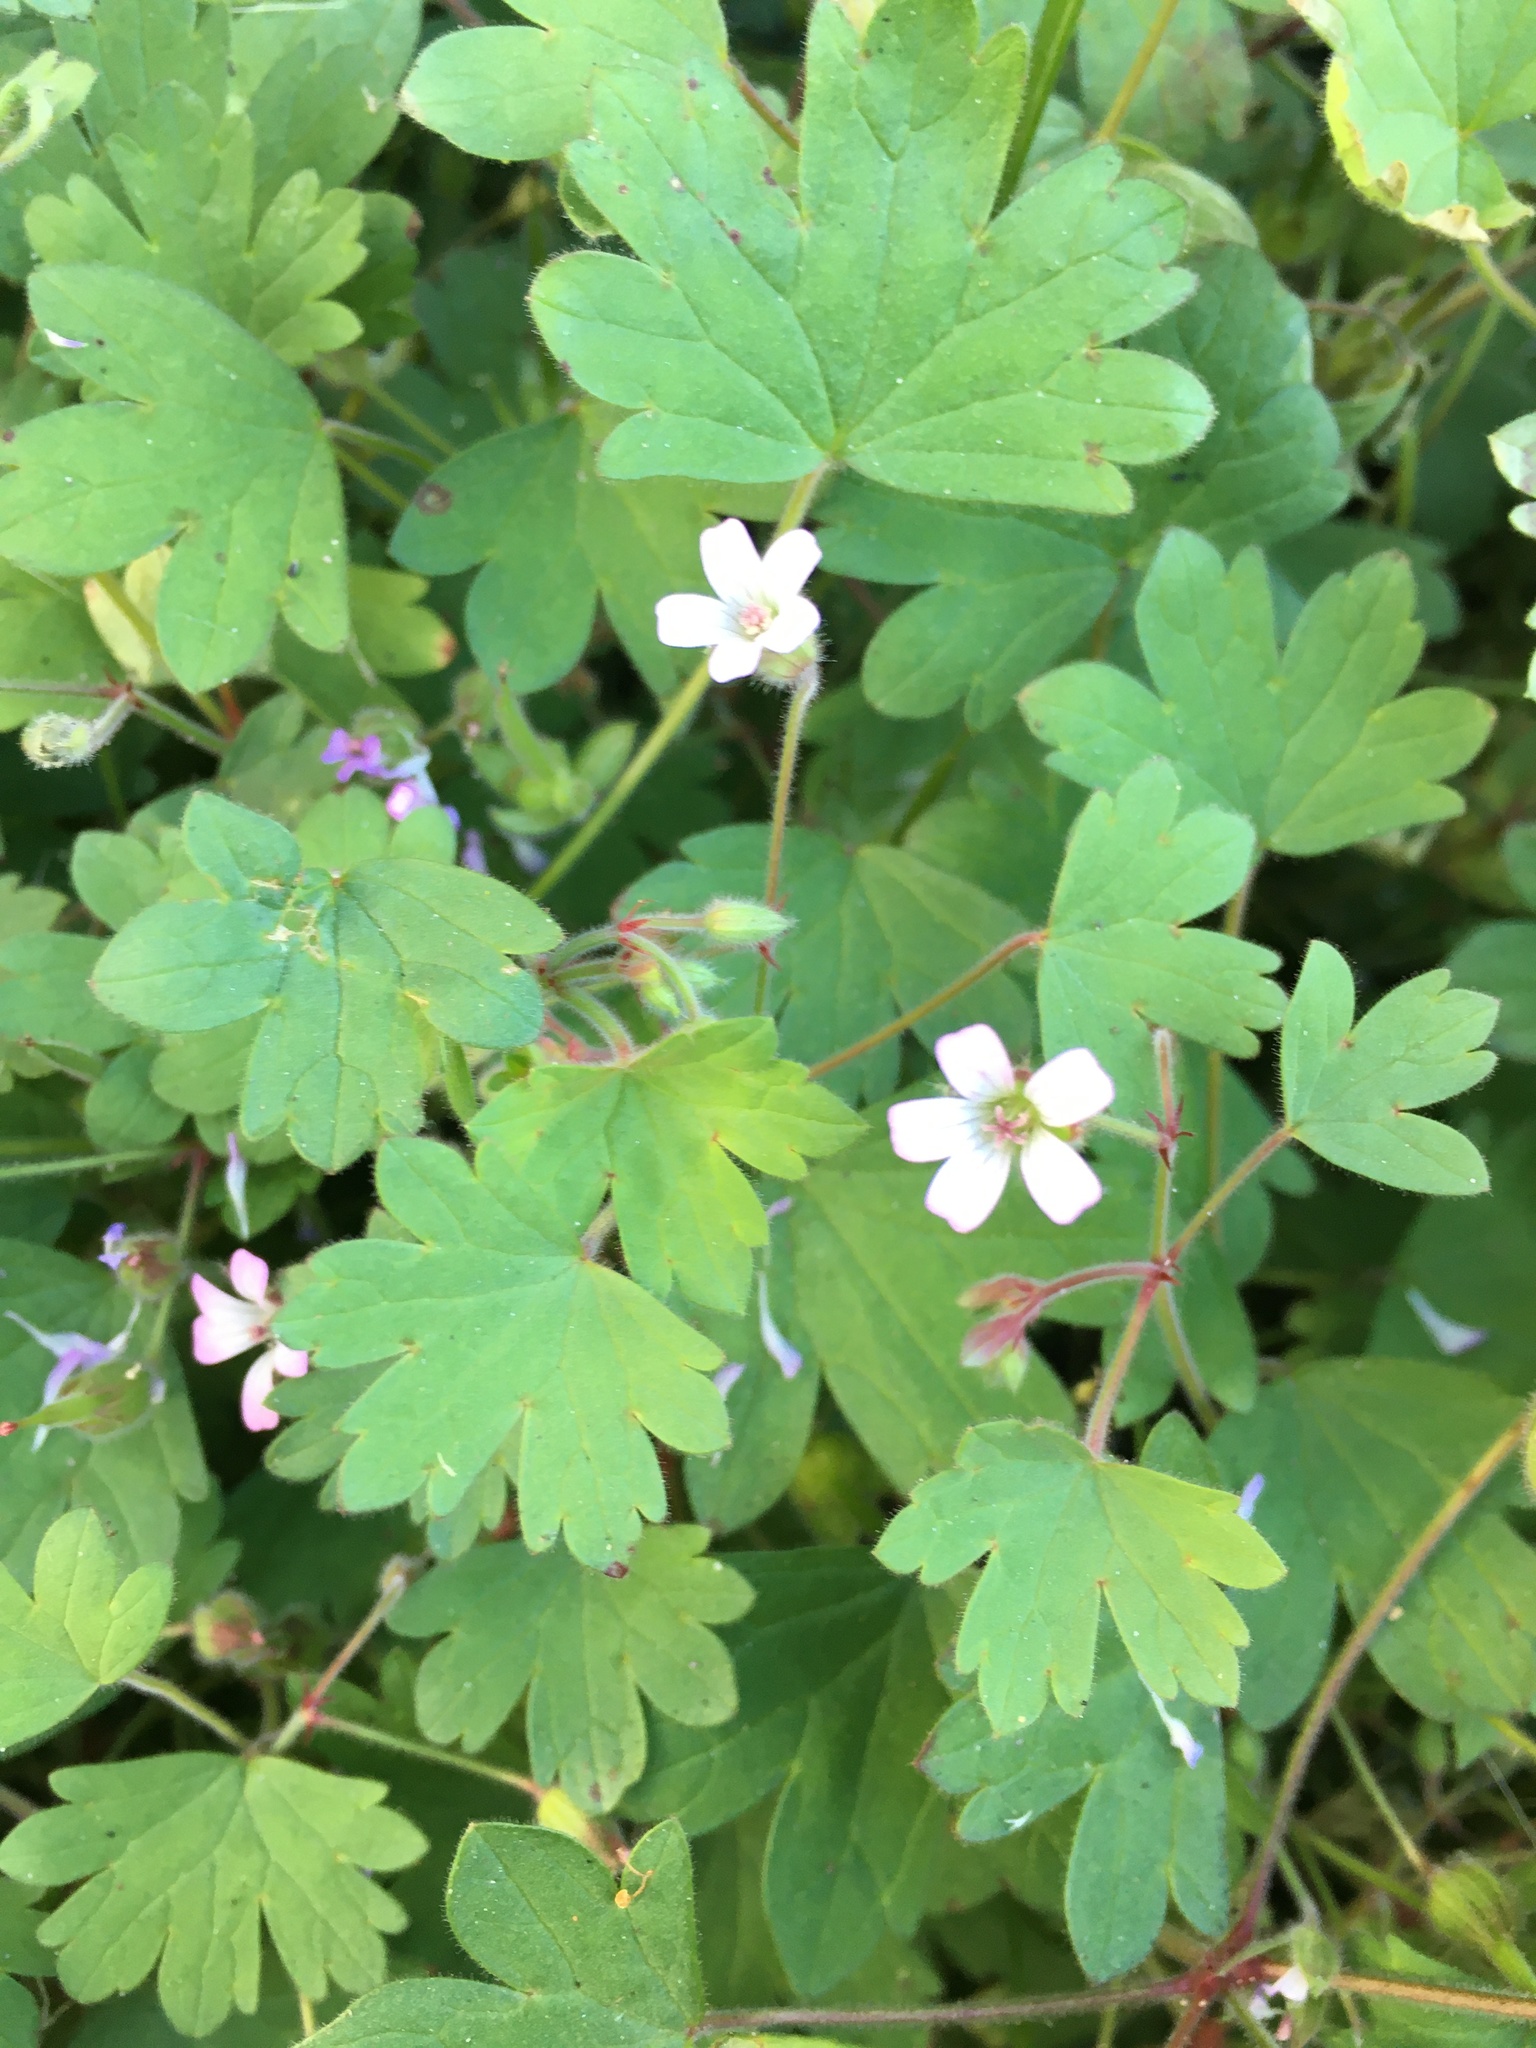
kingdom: Plantae
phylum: Tracheophyta
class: Magnoliopsida
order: Geraniales
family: Geraniaceae
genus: Geranium
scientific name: Geranium rotundifolium
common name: Round-leaved crane's-bill
